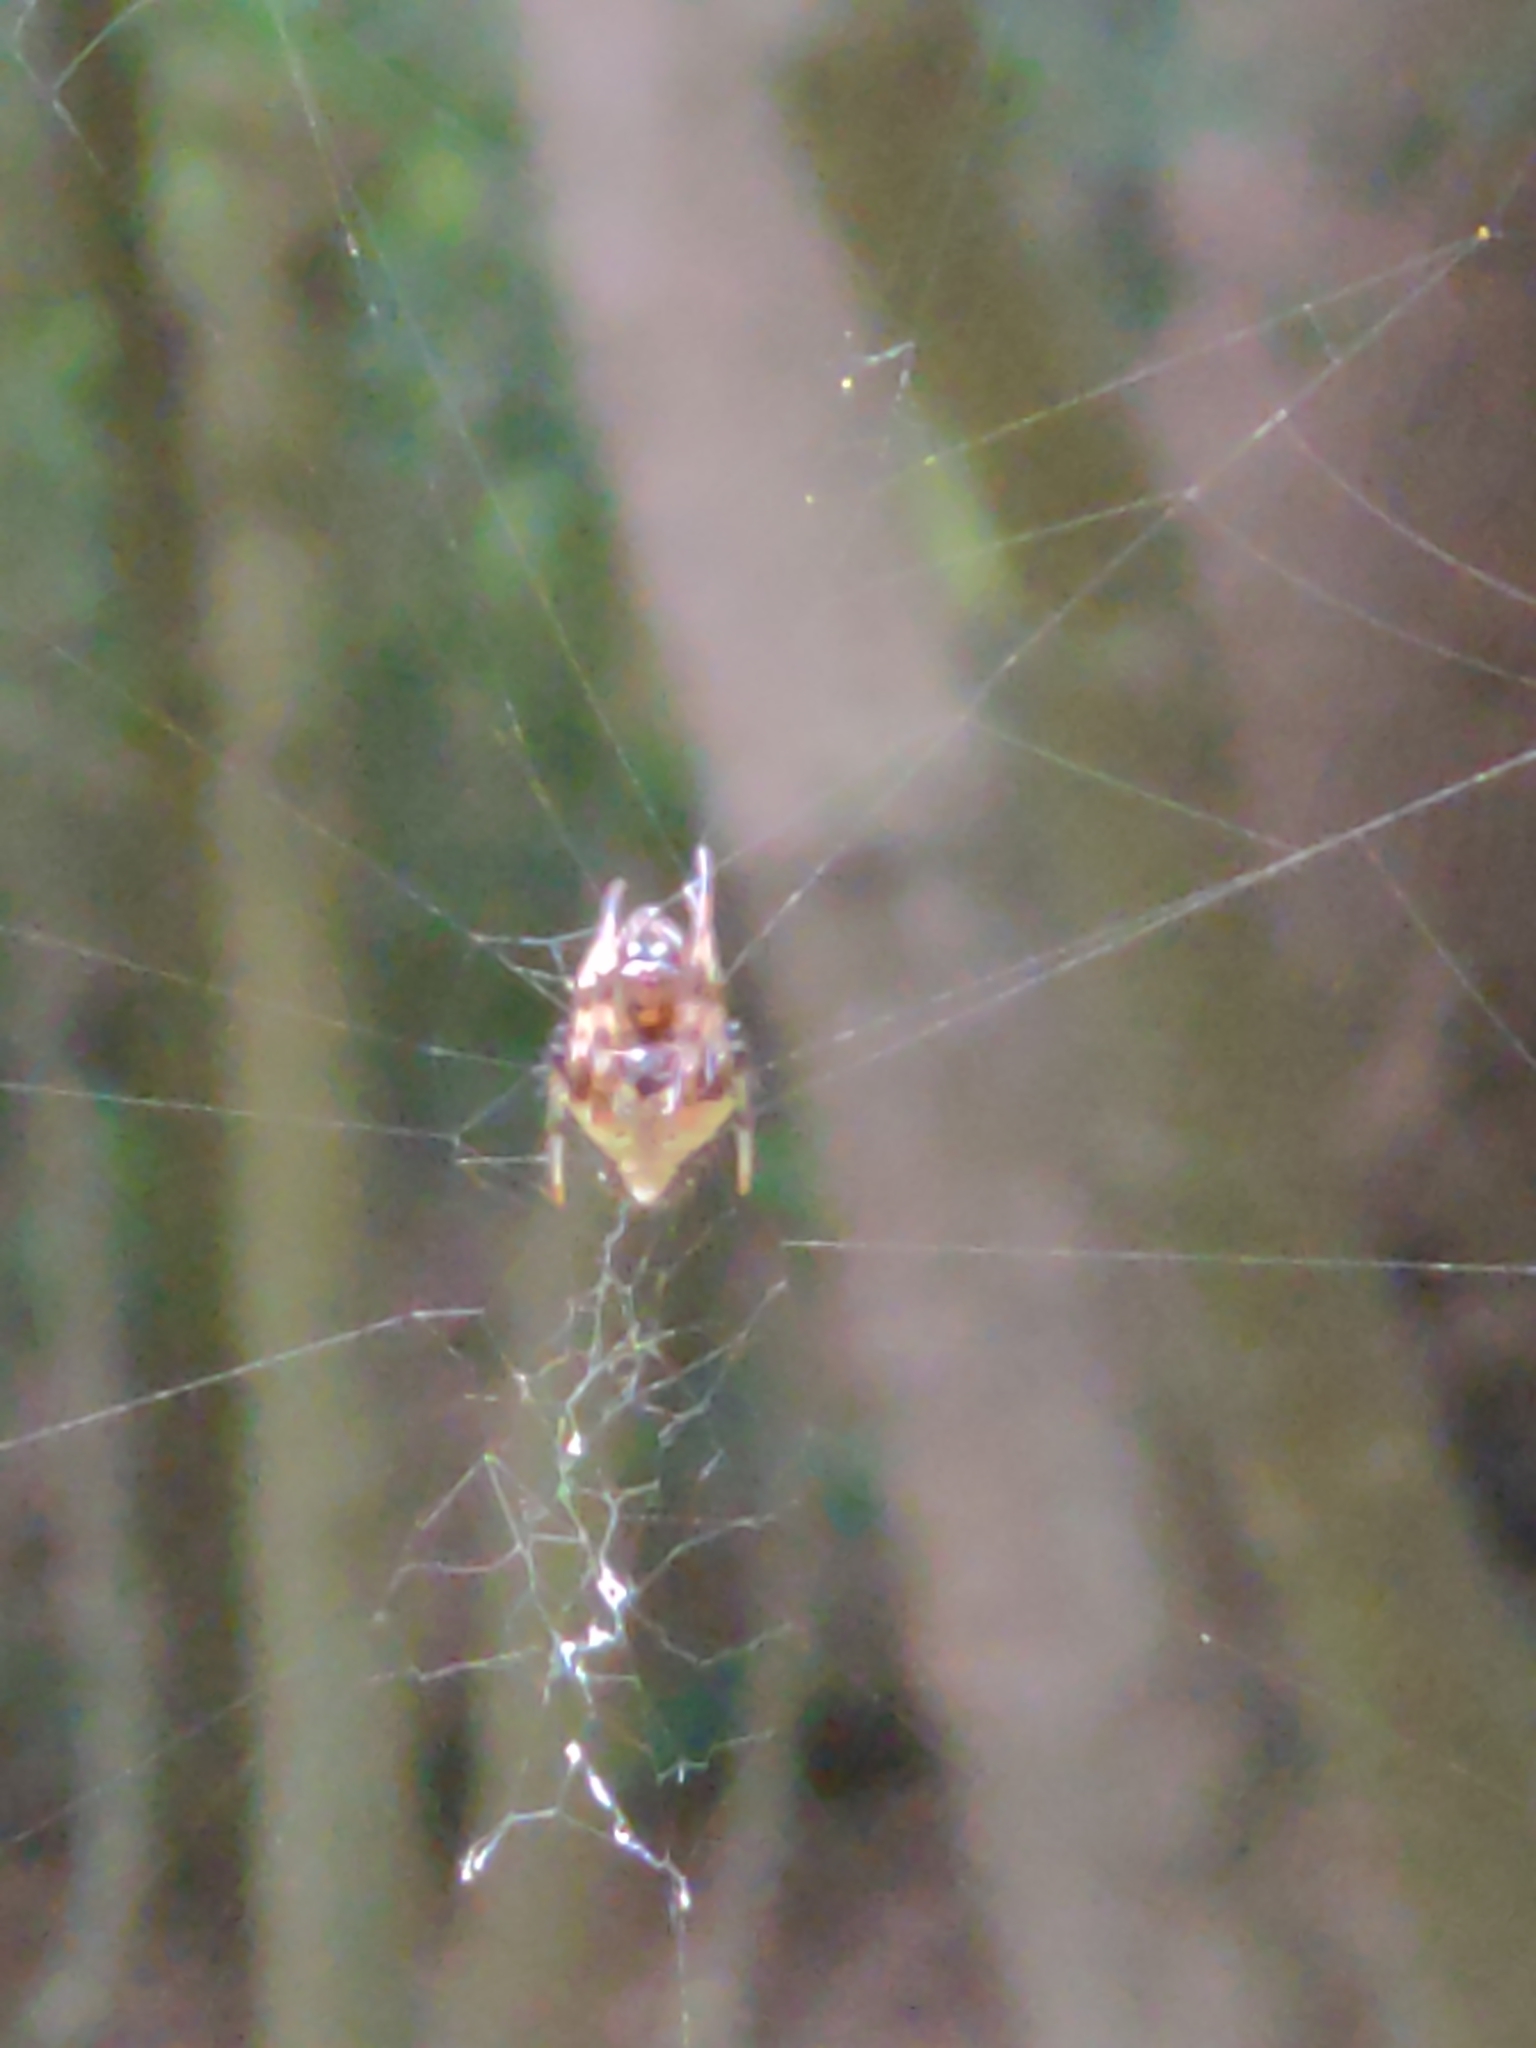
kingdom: Animalia
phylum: Arthropoda
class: Arachnida
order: Araneae
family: Araneidae
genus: Verrucosa
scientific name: Verrucosa arenata
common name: Orb weavers
